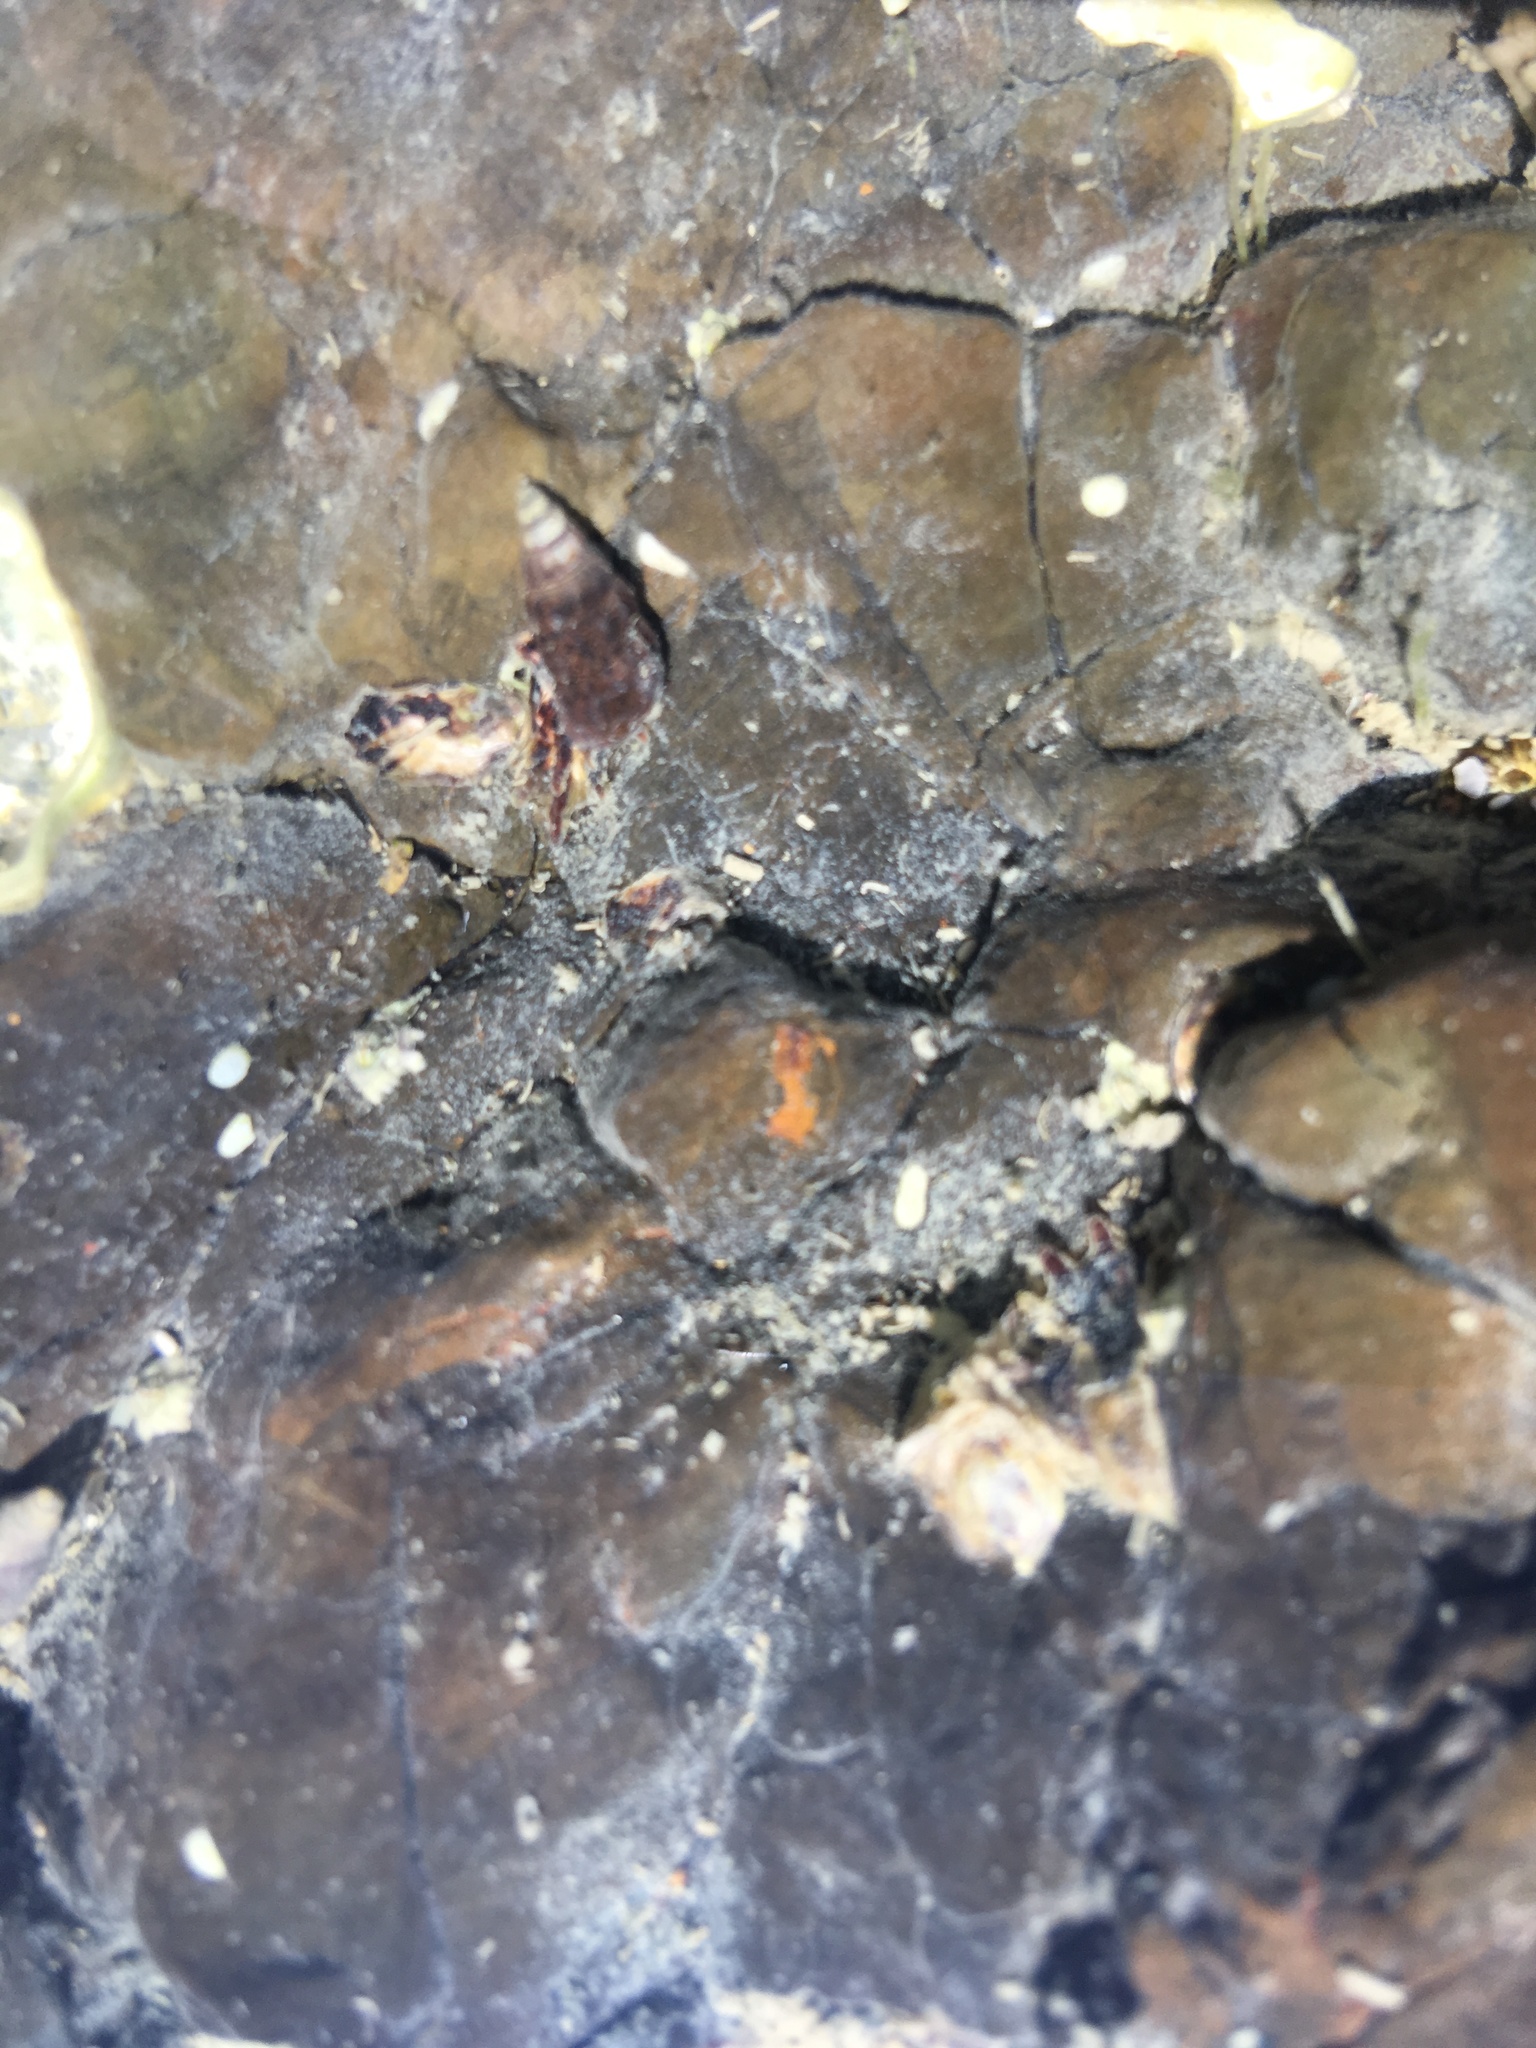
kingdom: Animalia
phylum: Mollusca
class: Gastropoda
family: Batillariidae
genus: Zeacumantus
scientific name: Zeacumantus subcarinatus
